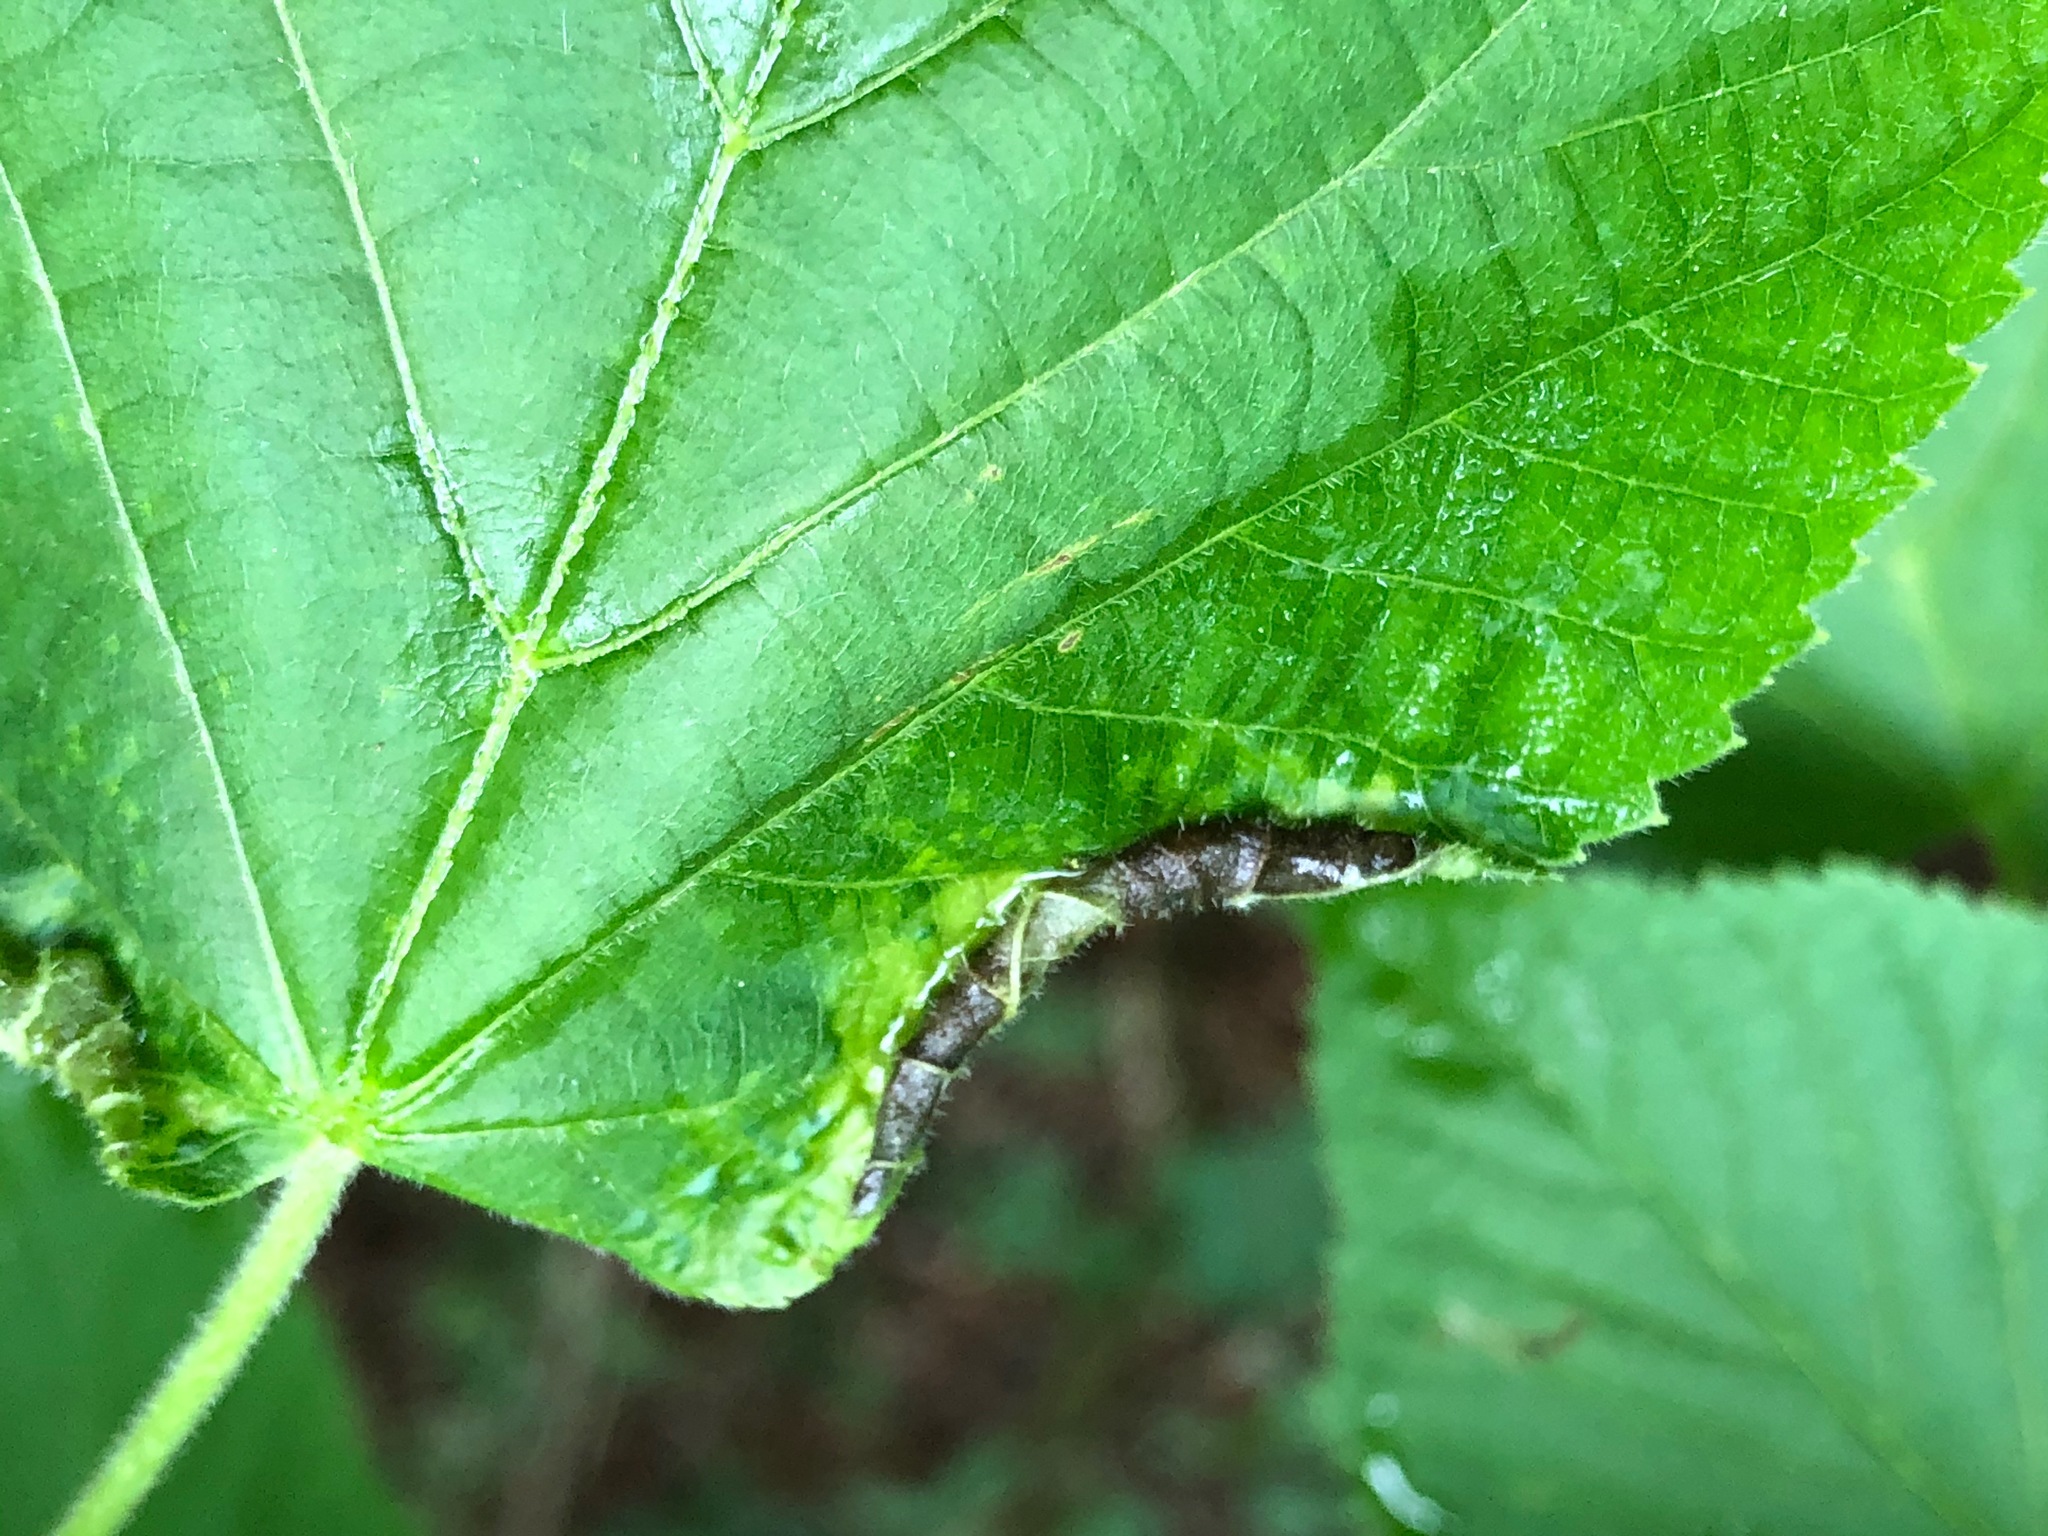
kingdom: Animalia
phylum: Arthropoda
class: Insecta
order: Diptera
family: Cecidomyiidae
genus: Dasineura
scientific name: Dasineura tiliae
